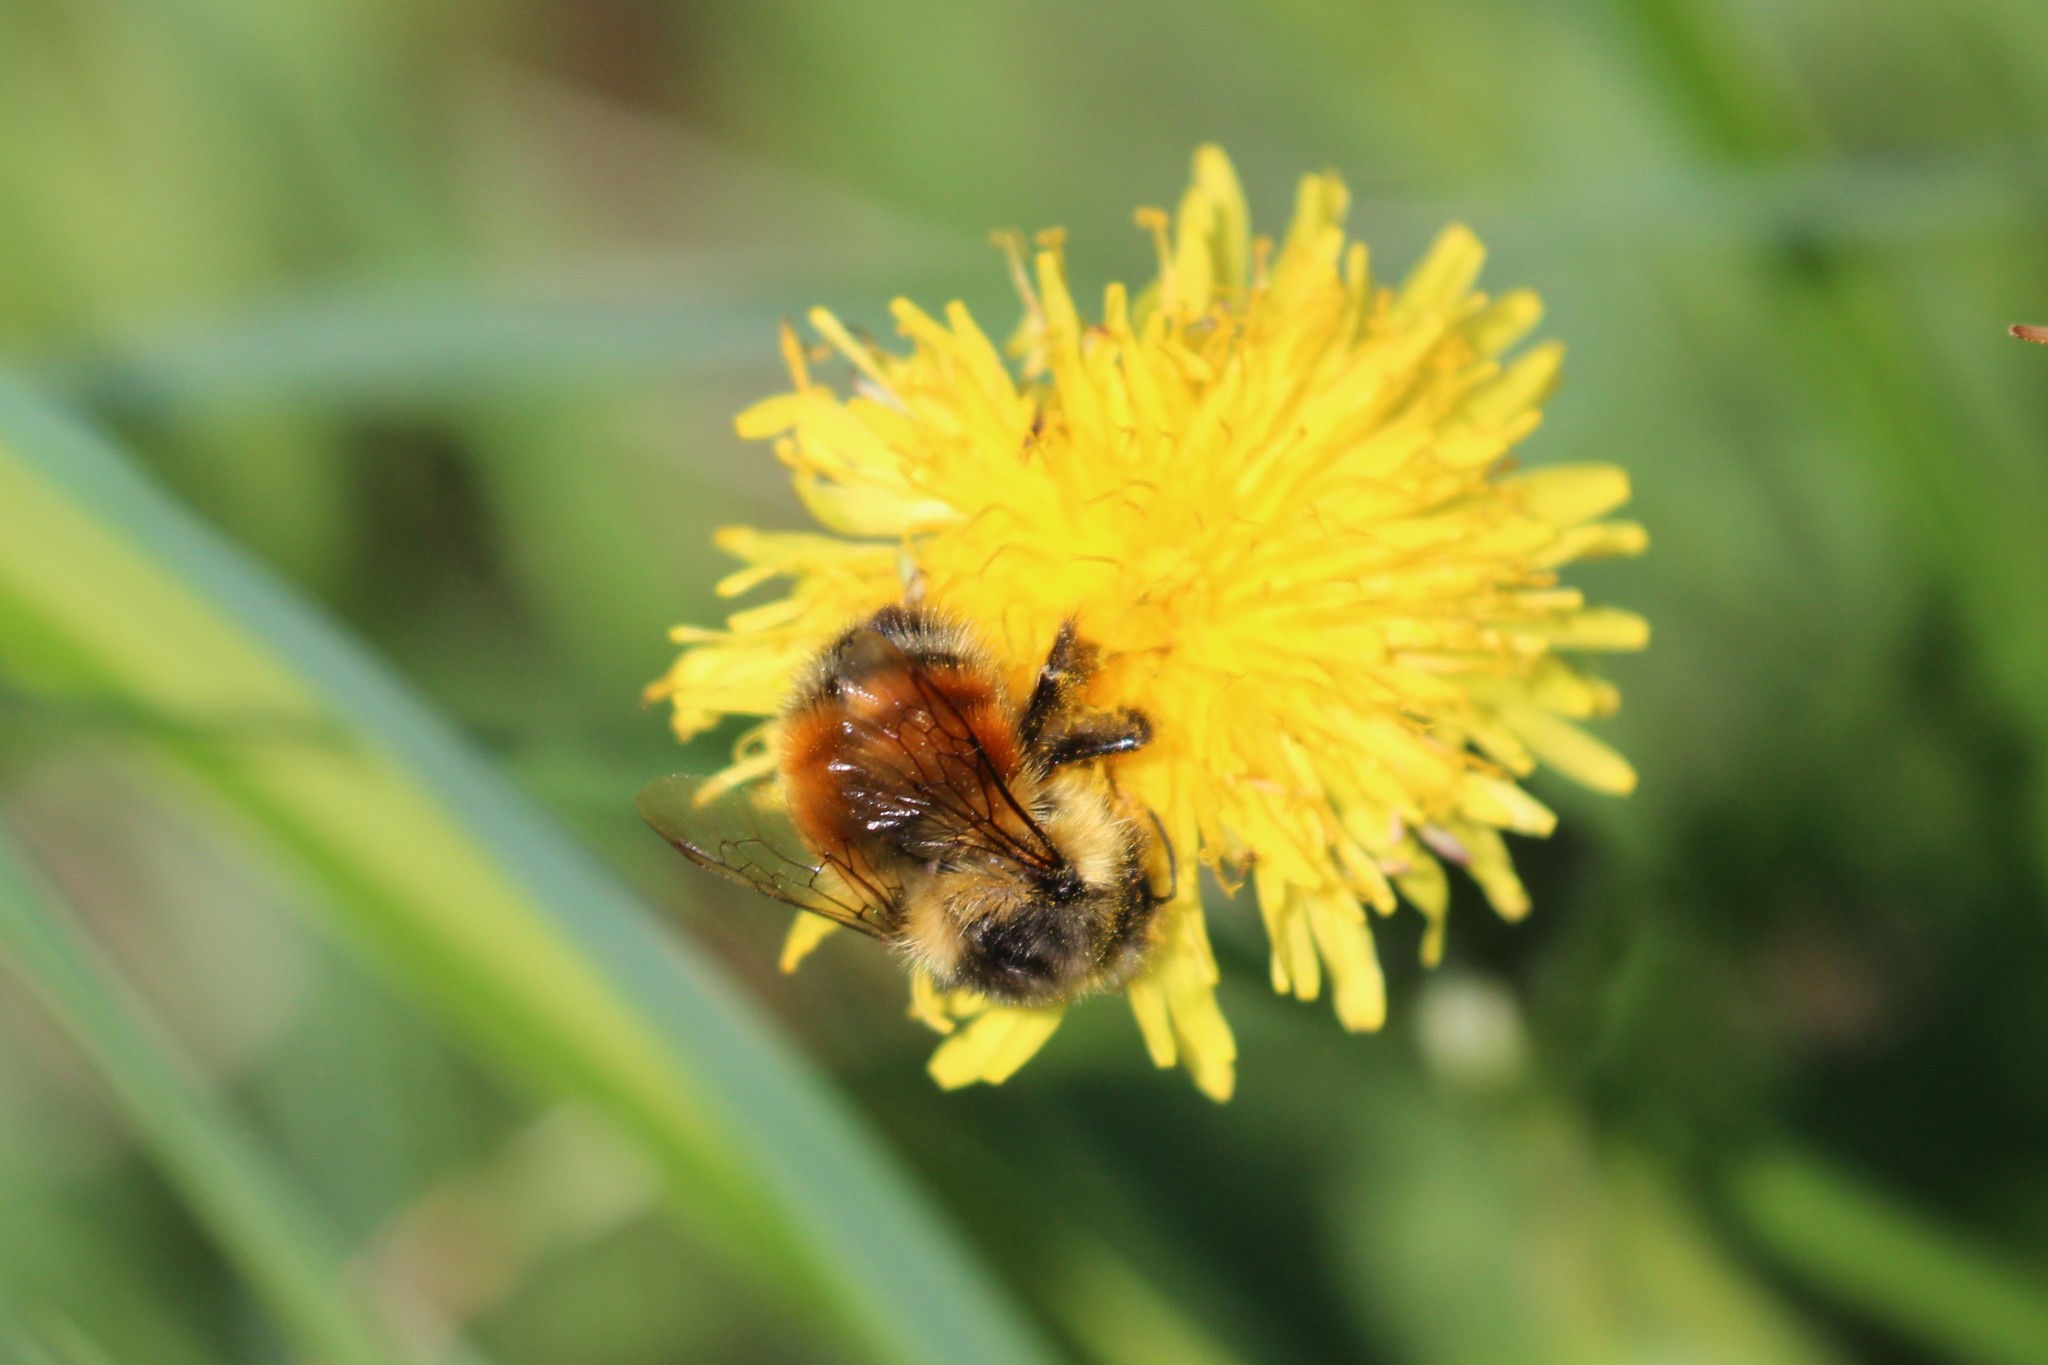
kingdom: Animalia
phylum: Arthropoda
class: Insecta
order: Hymenoptera
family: Apidae
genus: Bombus
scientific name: Bombus melanopygus
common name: Black tail bumble bee
